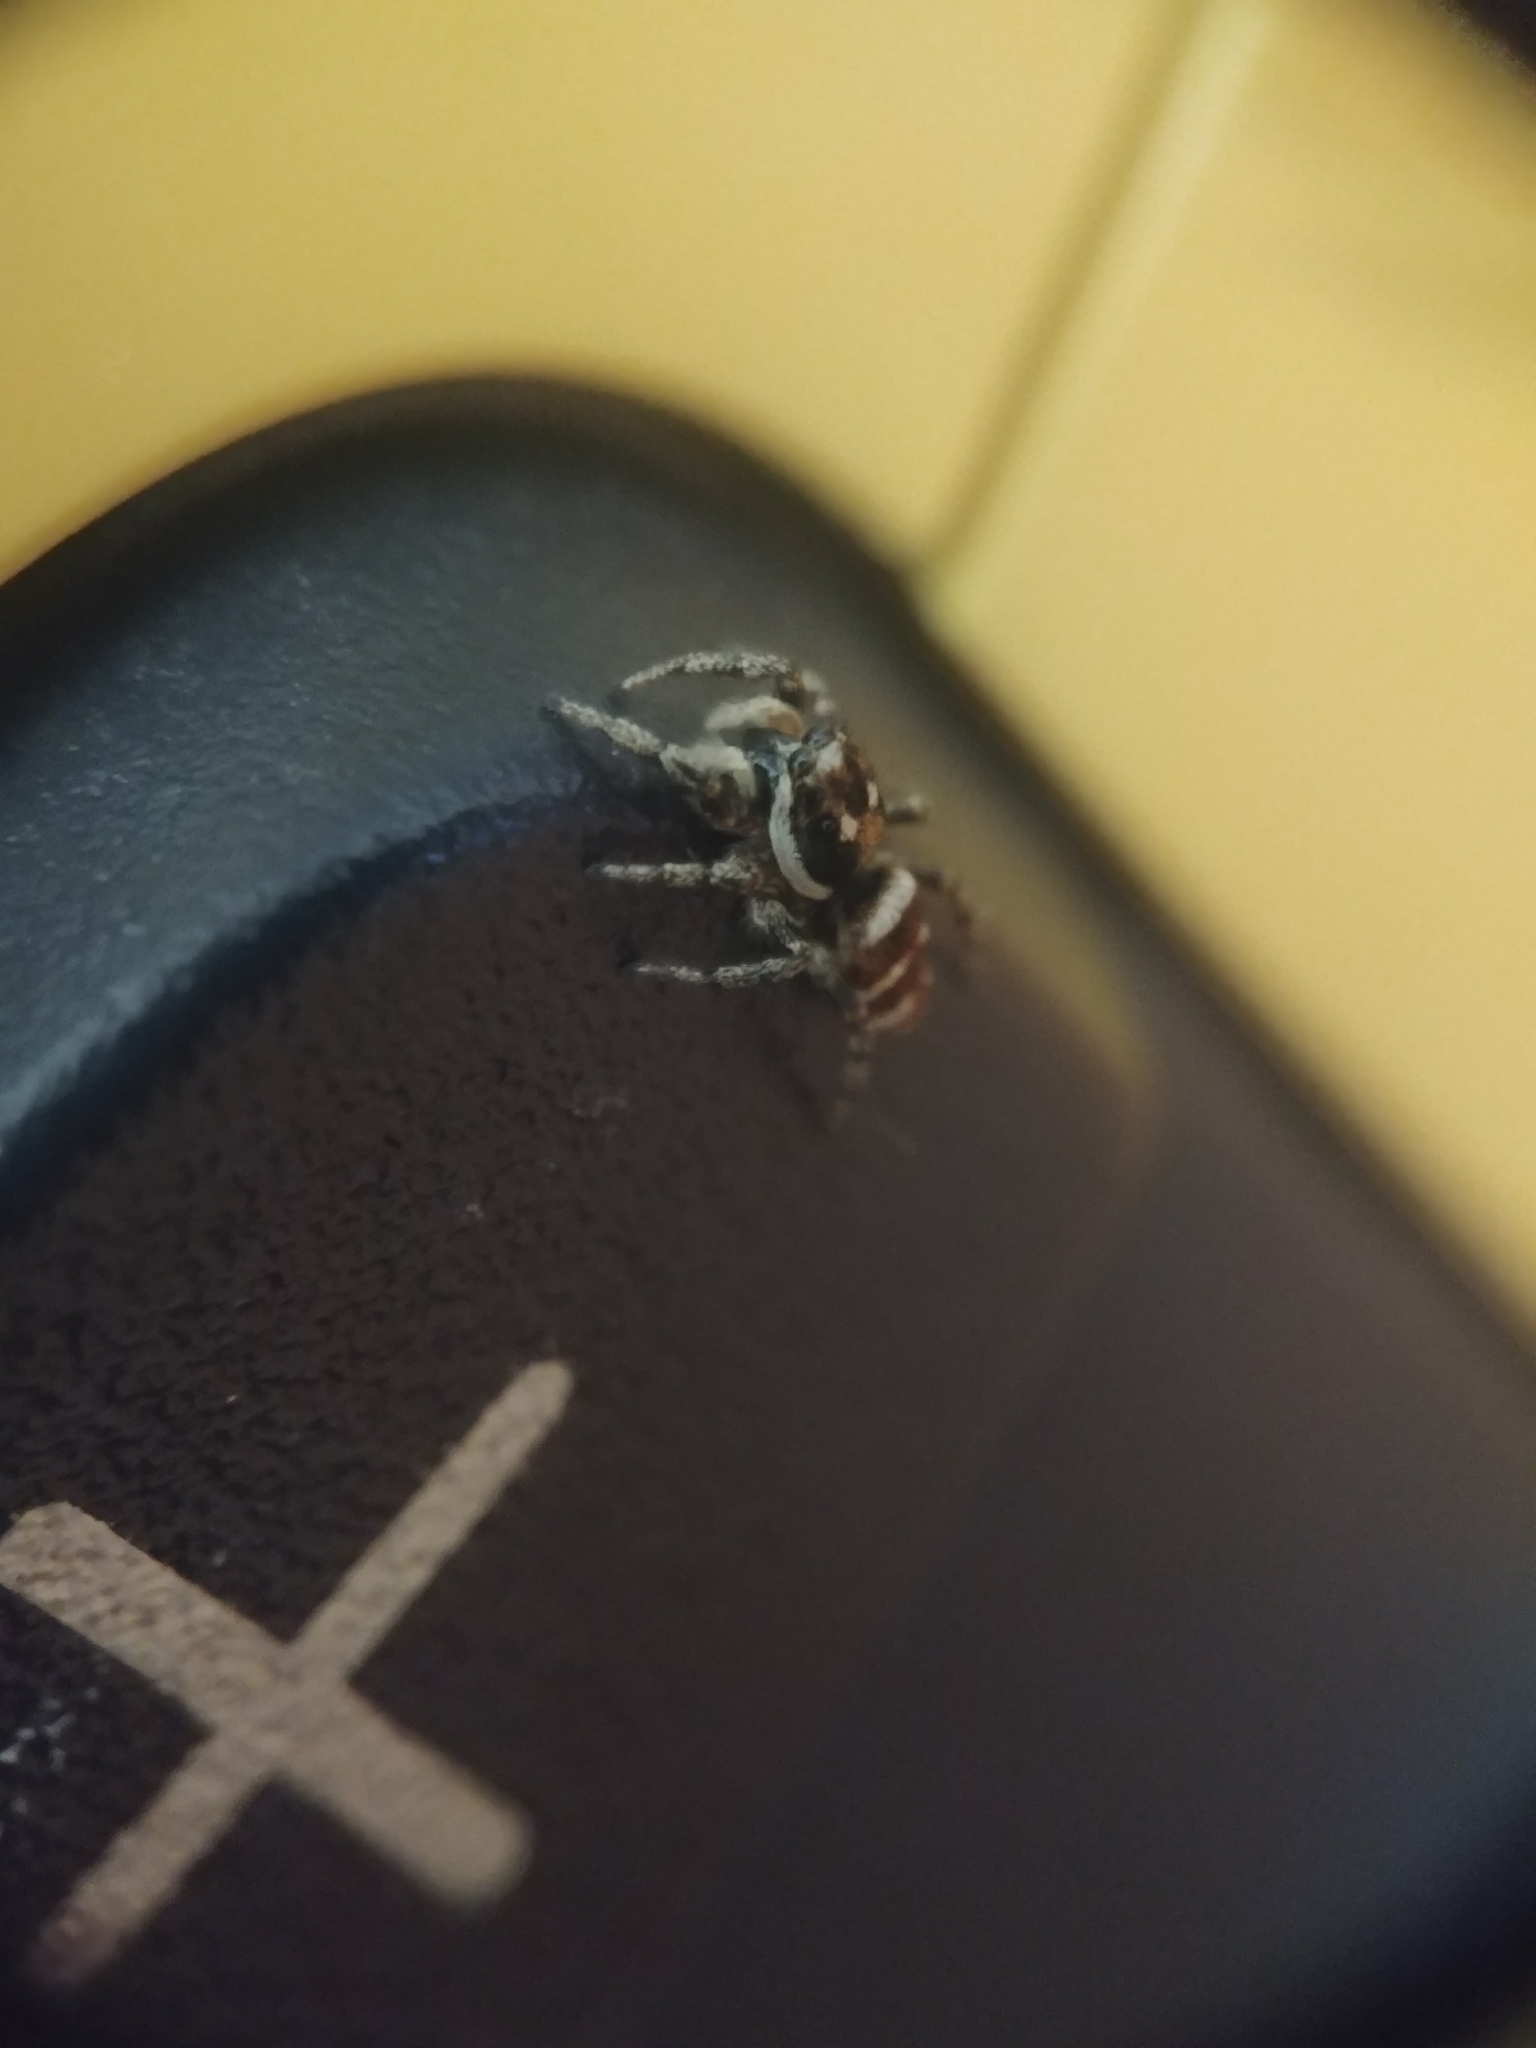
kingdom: Animalia
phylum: Arthropoda
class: Arachnida
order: Araneae
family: Salticidae
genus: Salticus
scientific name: Salticus scenicus
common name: Zebra jumper
